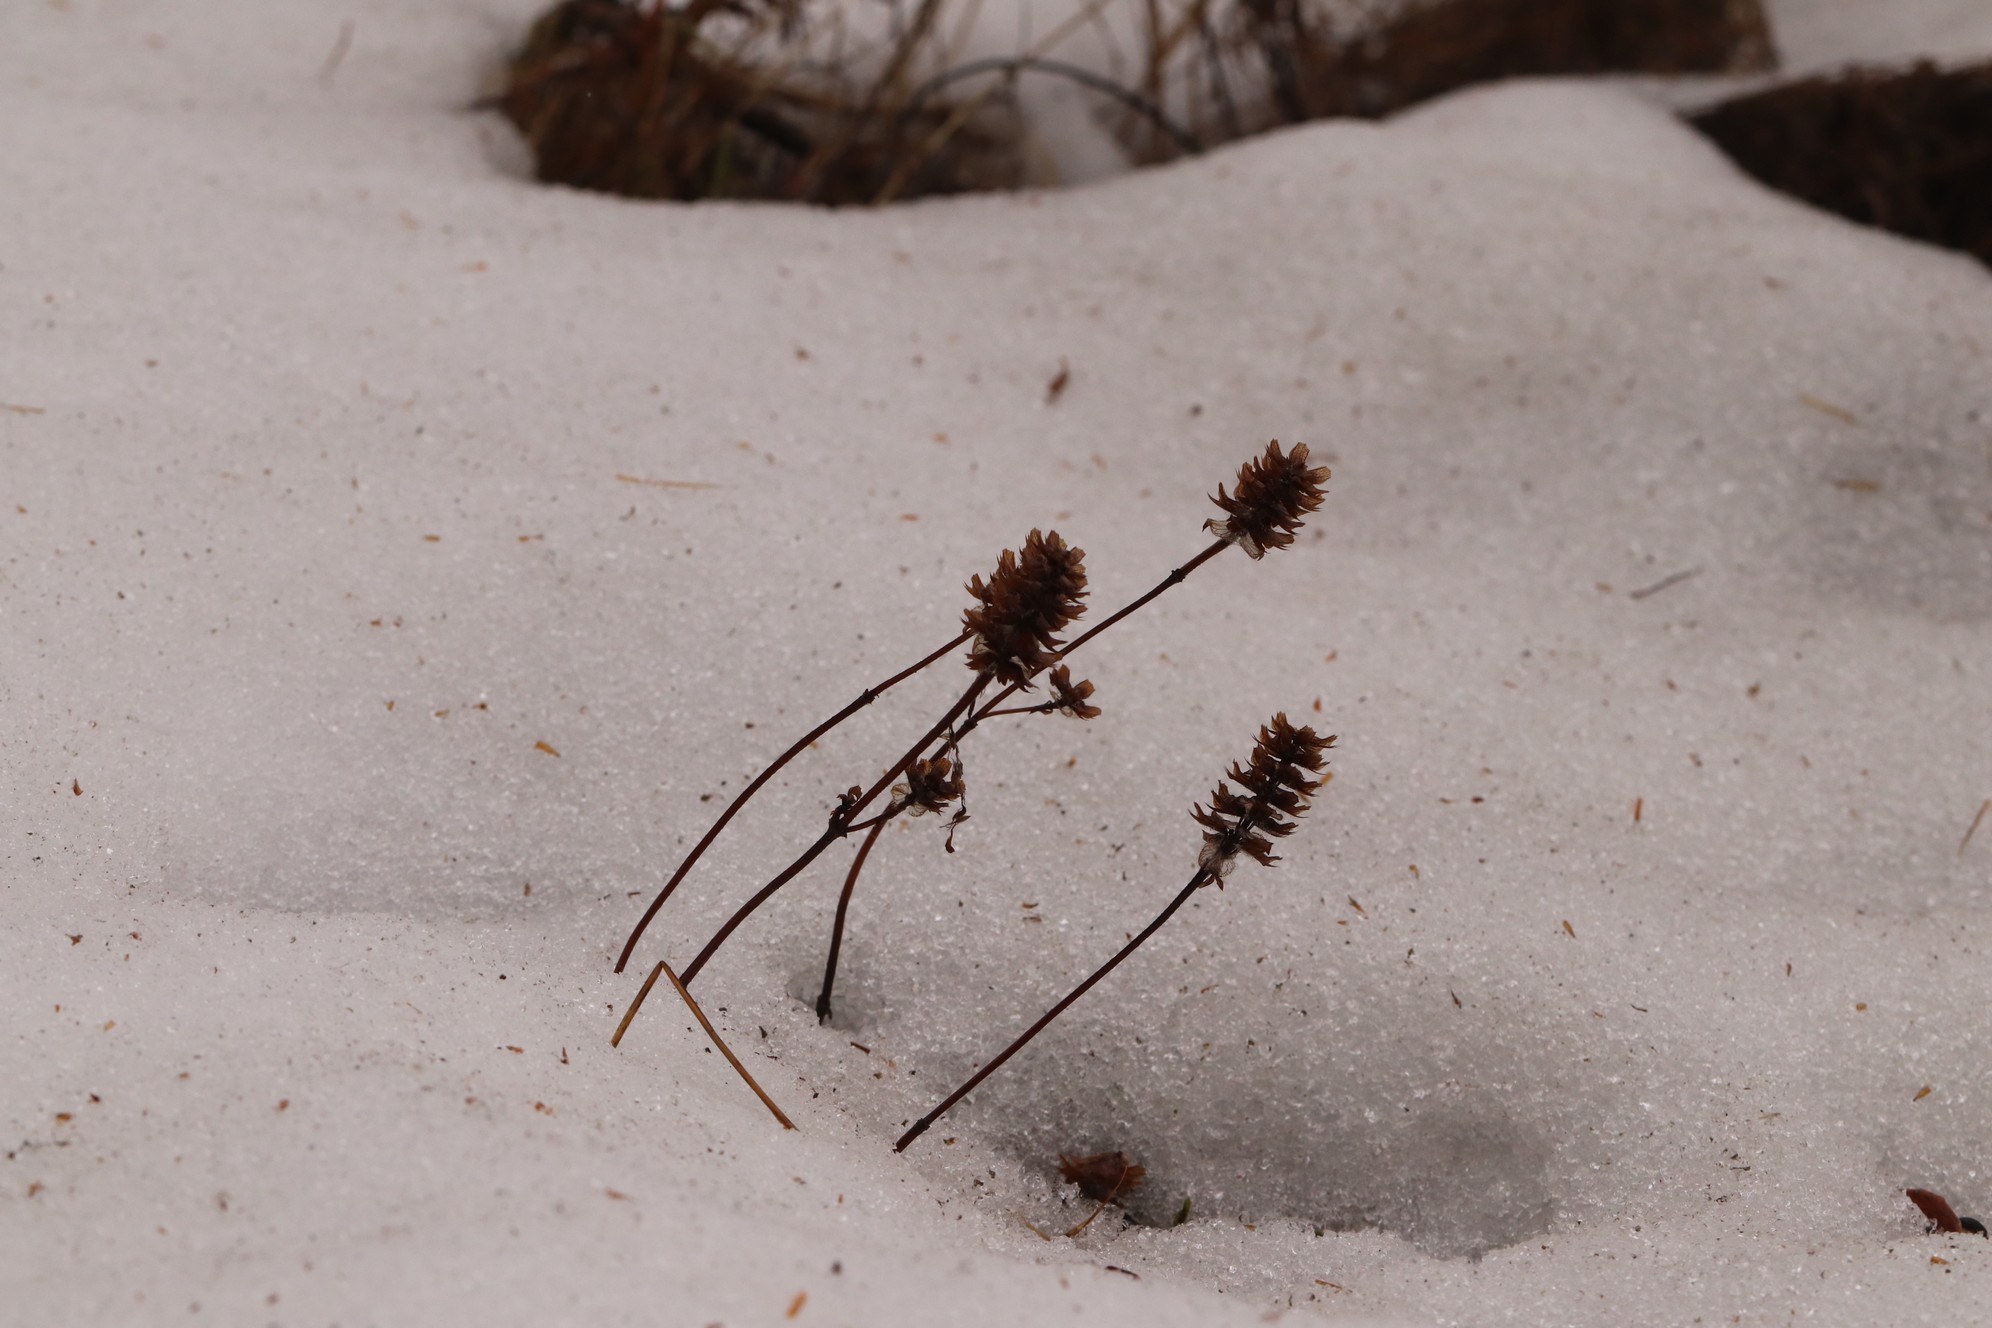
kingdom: Plantae
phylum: Tracheophyta
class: Magnoliopsida
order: Lamiales
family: Lamiaceae
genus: Prunella
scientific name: Prunella vulgaris
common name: Heal-all
